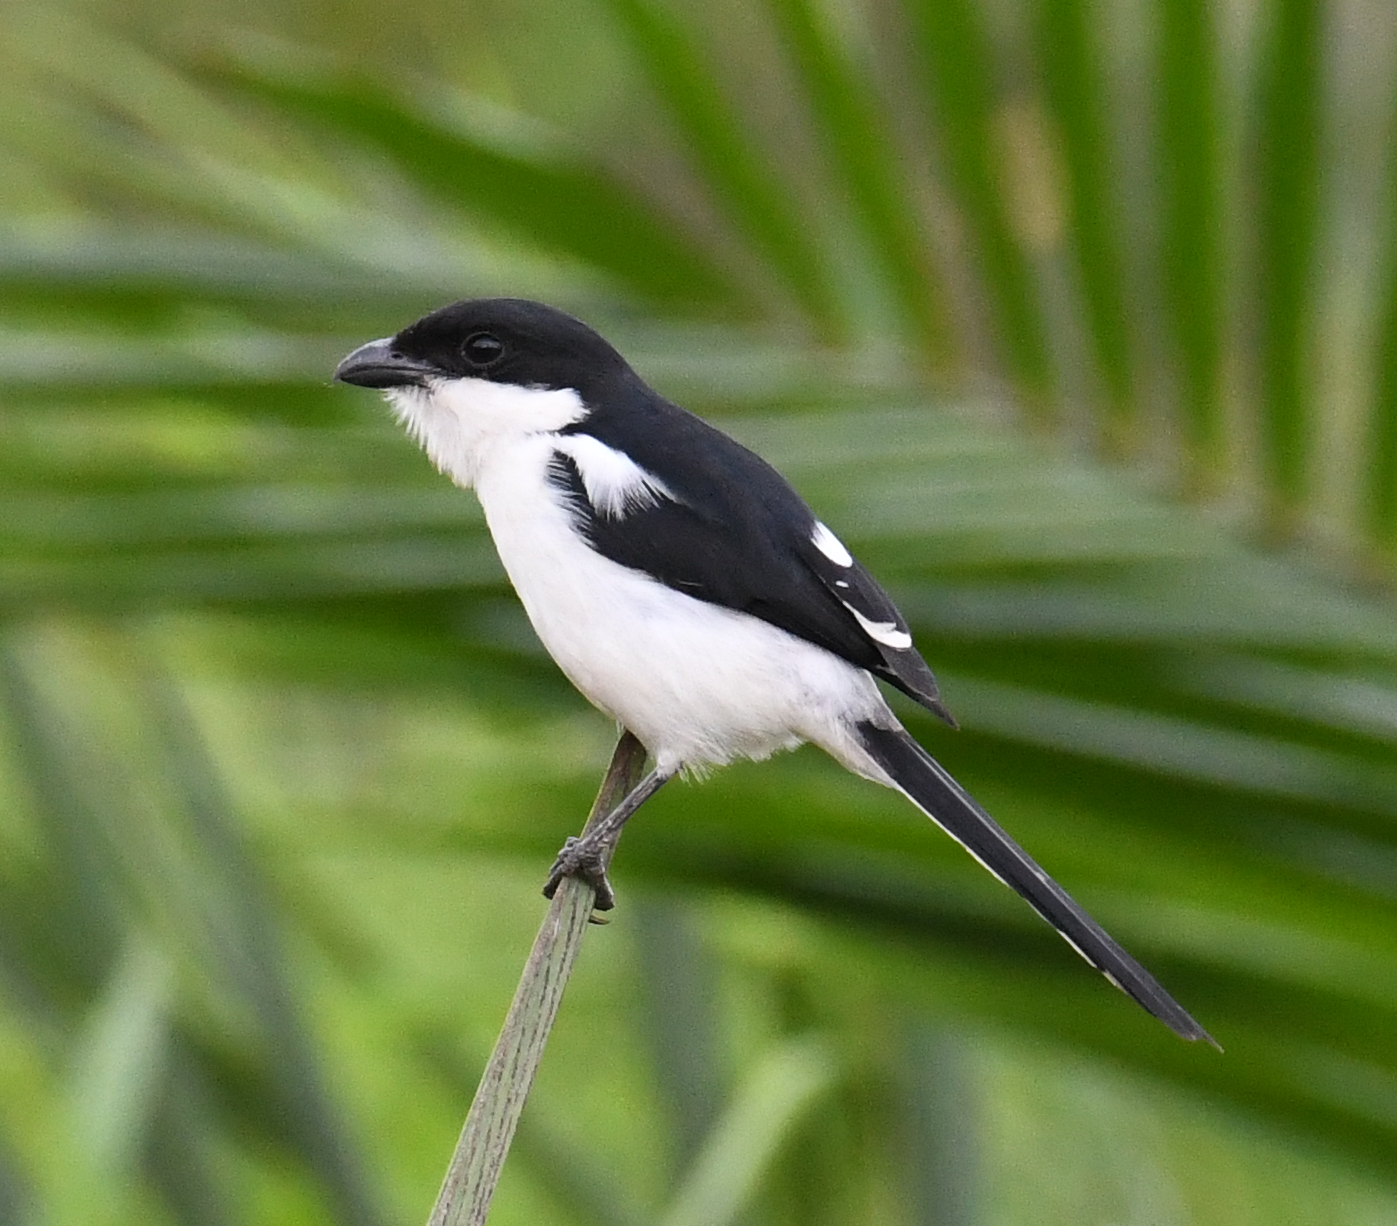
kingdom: Animalia
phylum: Chordata
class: Aves
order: Passeriformes
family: Laniidae
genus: Lanius
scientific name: Lanius humeralis
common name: Northern fiscal
